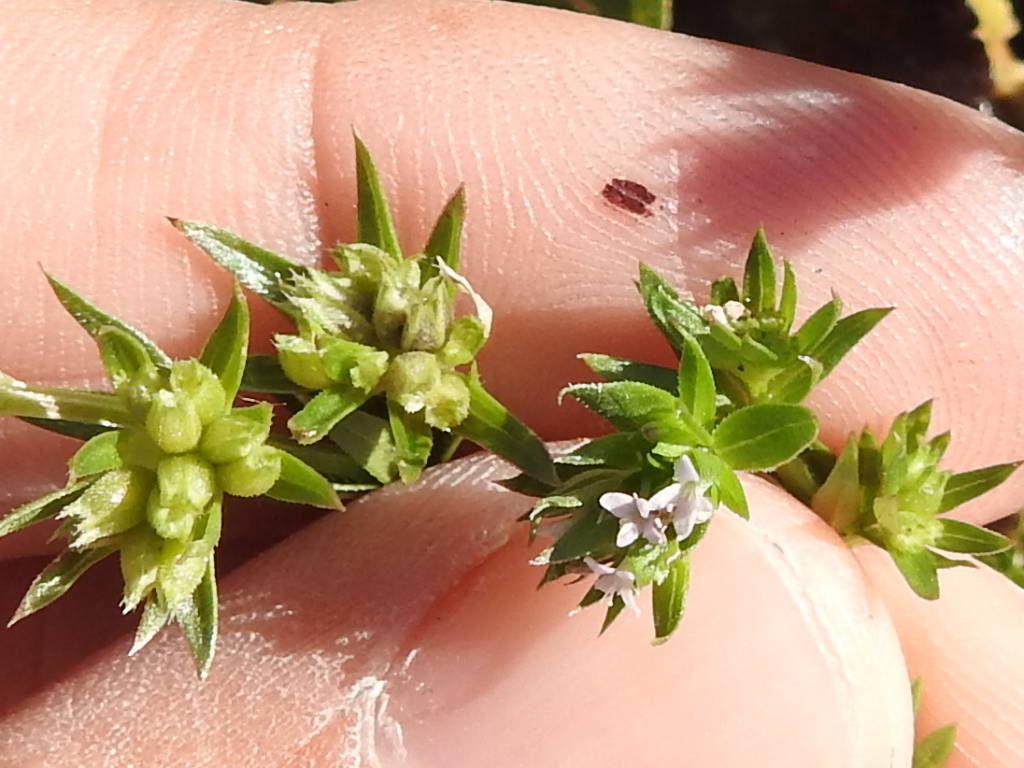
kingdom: Plantae
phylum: Tracheophyta
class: Magnoliopsida
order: Gentianales
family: Rubiaceae
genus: Sherardia
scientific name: Sherardia arvensis
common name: Field madder
